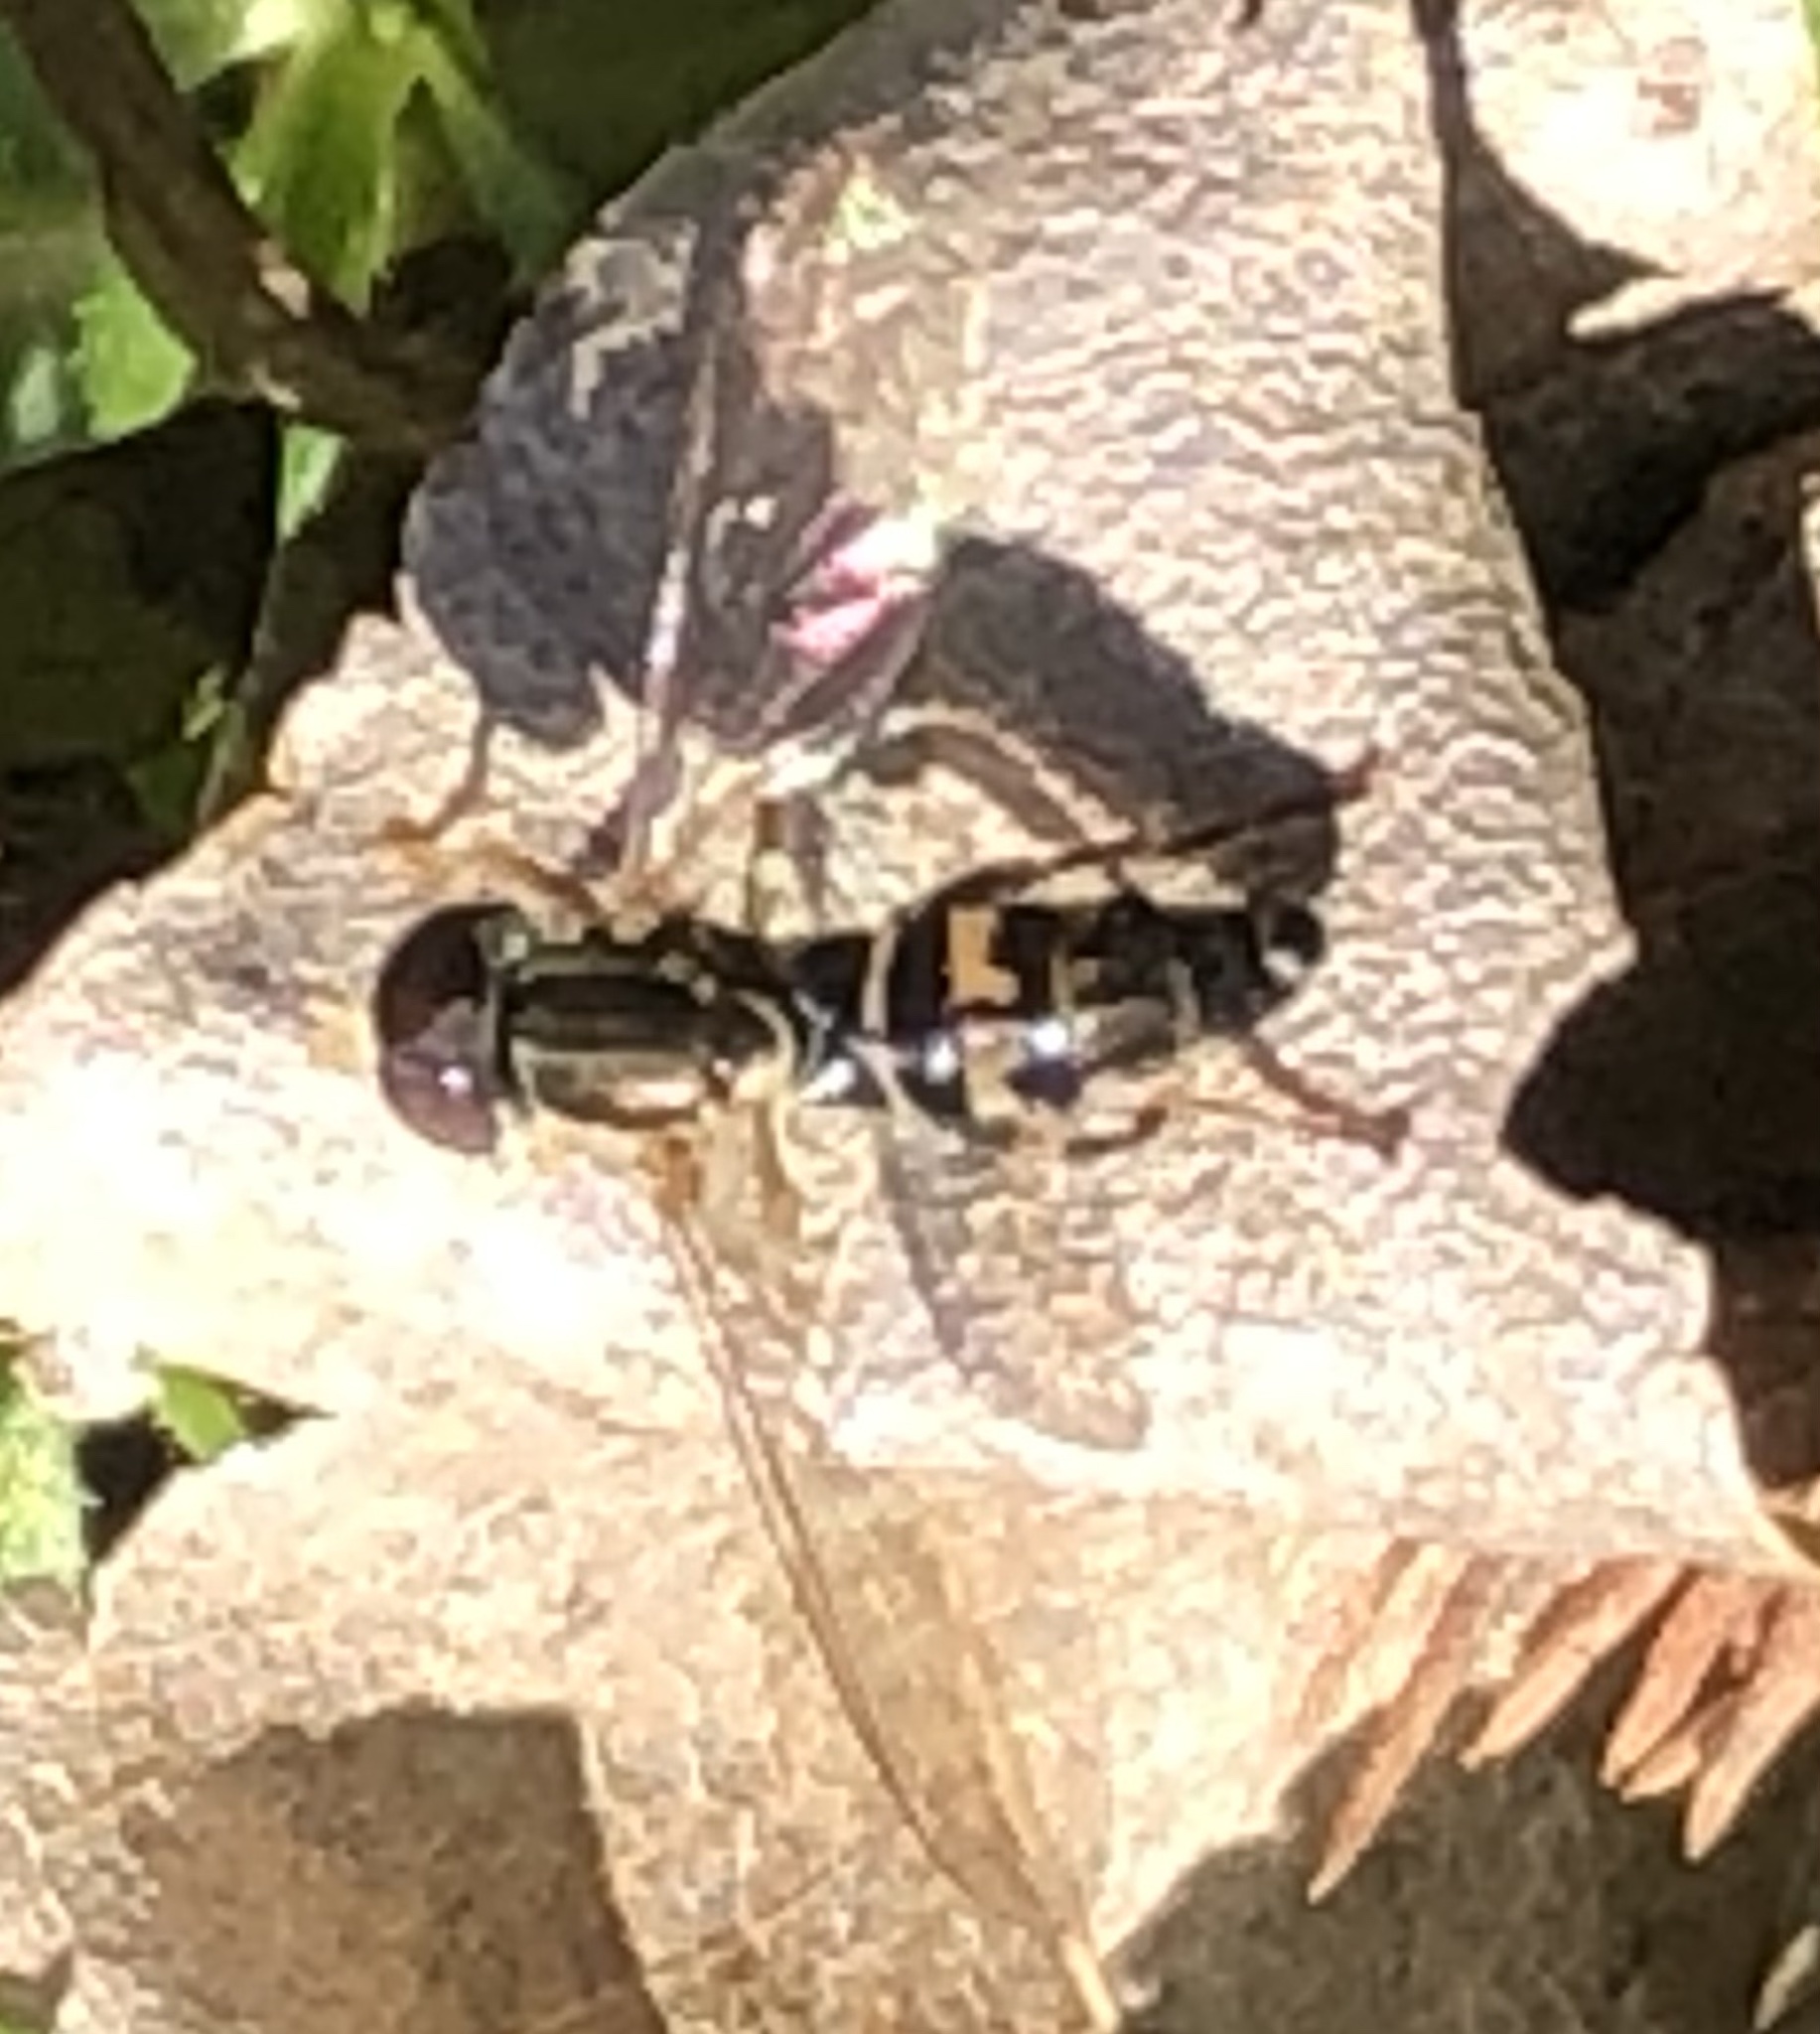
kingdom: Animalia
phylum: Arthropoda
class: Insecta
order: Diptera
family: Syrphidae
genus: Toxomerus
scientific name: Toxomerus geminatus
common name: Eastern calligrapher
